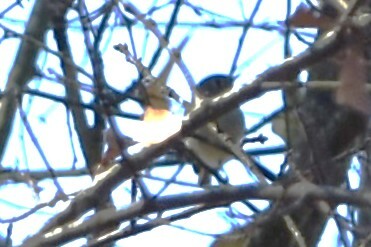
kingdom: Animalia
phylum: Chordata
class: Aves
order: Passeriformes
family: Regulidae
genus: Regulus
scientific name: Regulus calendula
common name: Ruby-crowned kinglet
